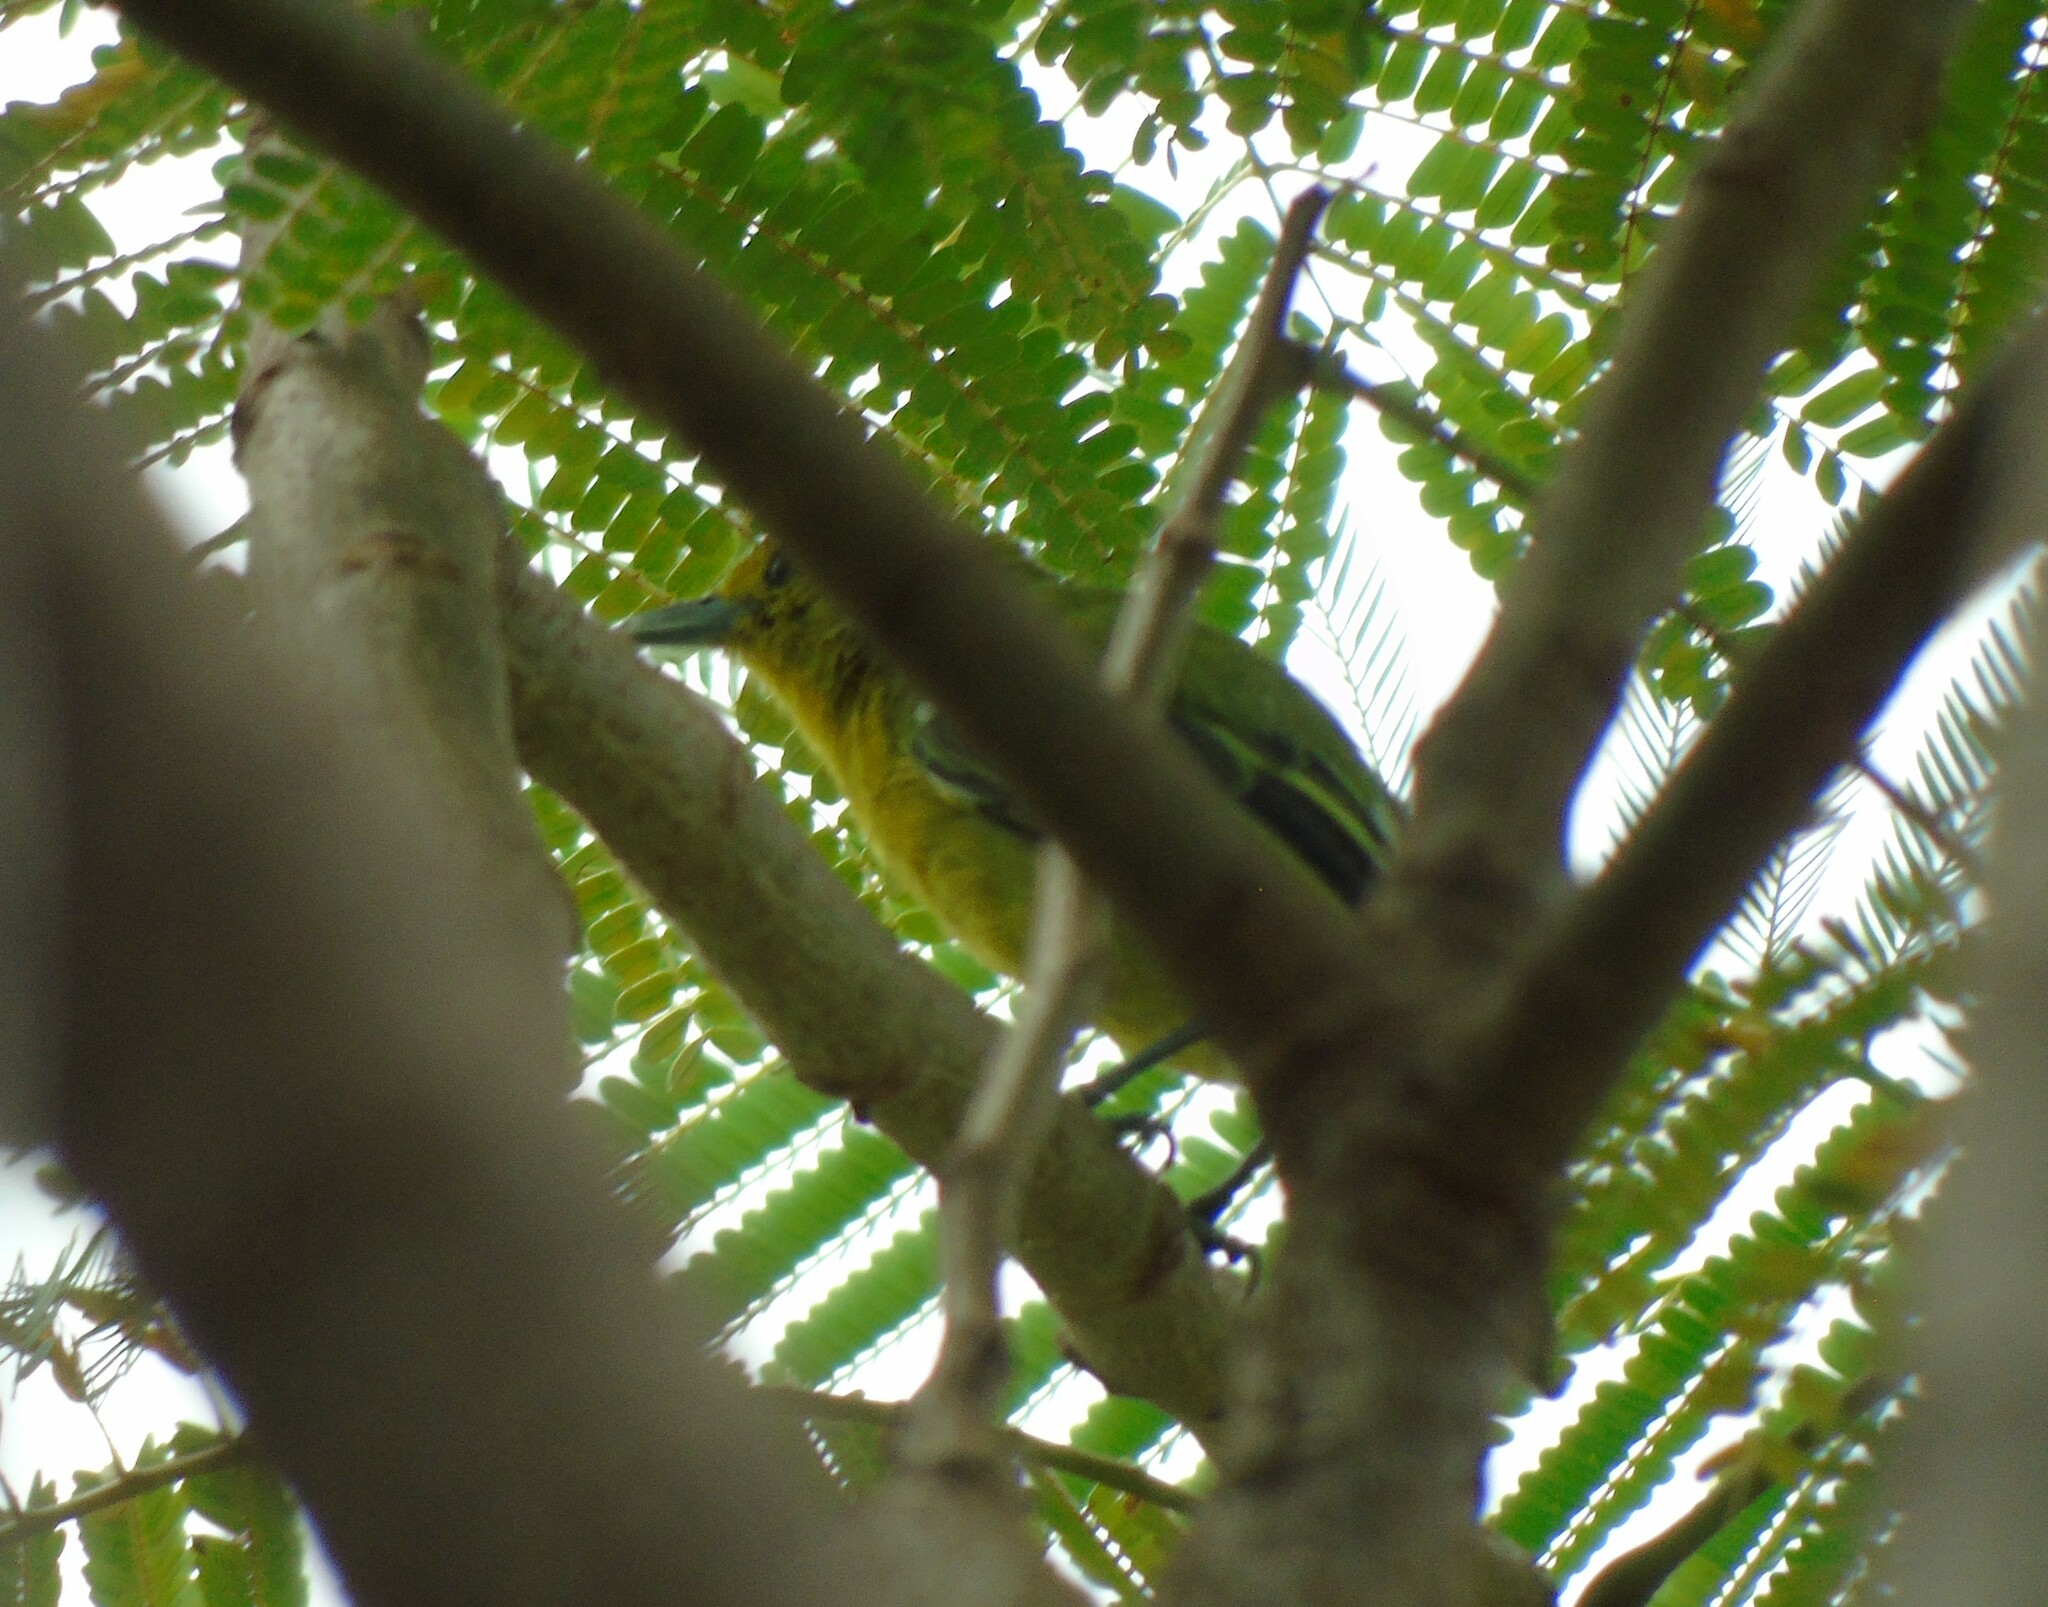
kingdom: Animalia
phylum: Chordata
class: Aves
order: Passeriformes
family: Aegithinidae
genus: Aegithina
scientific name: Aegithina tiphia
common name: Common iora
